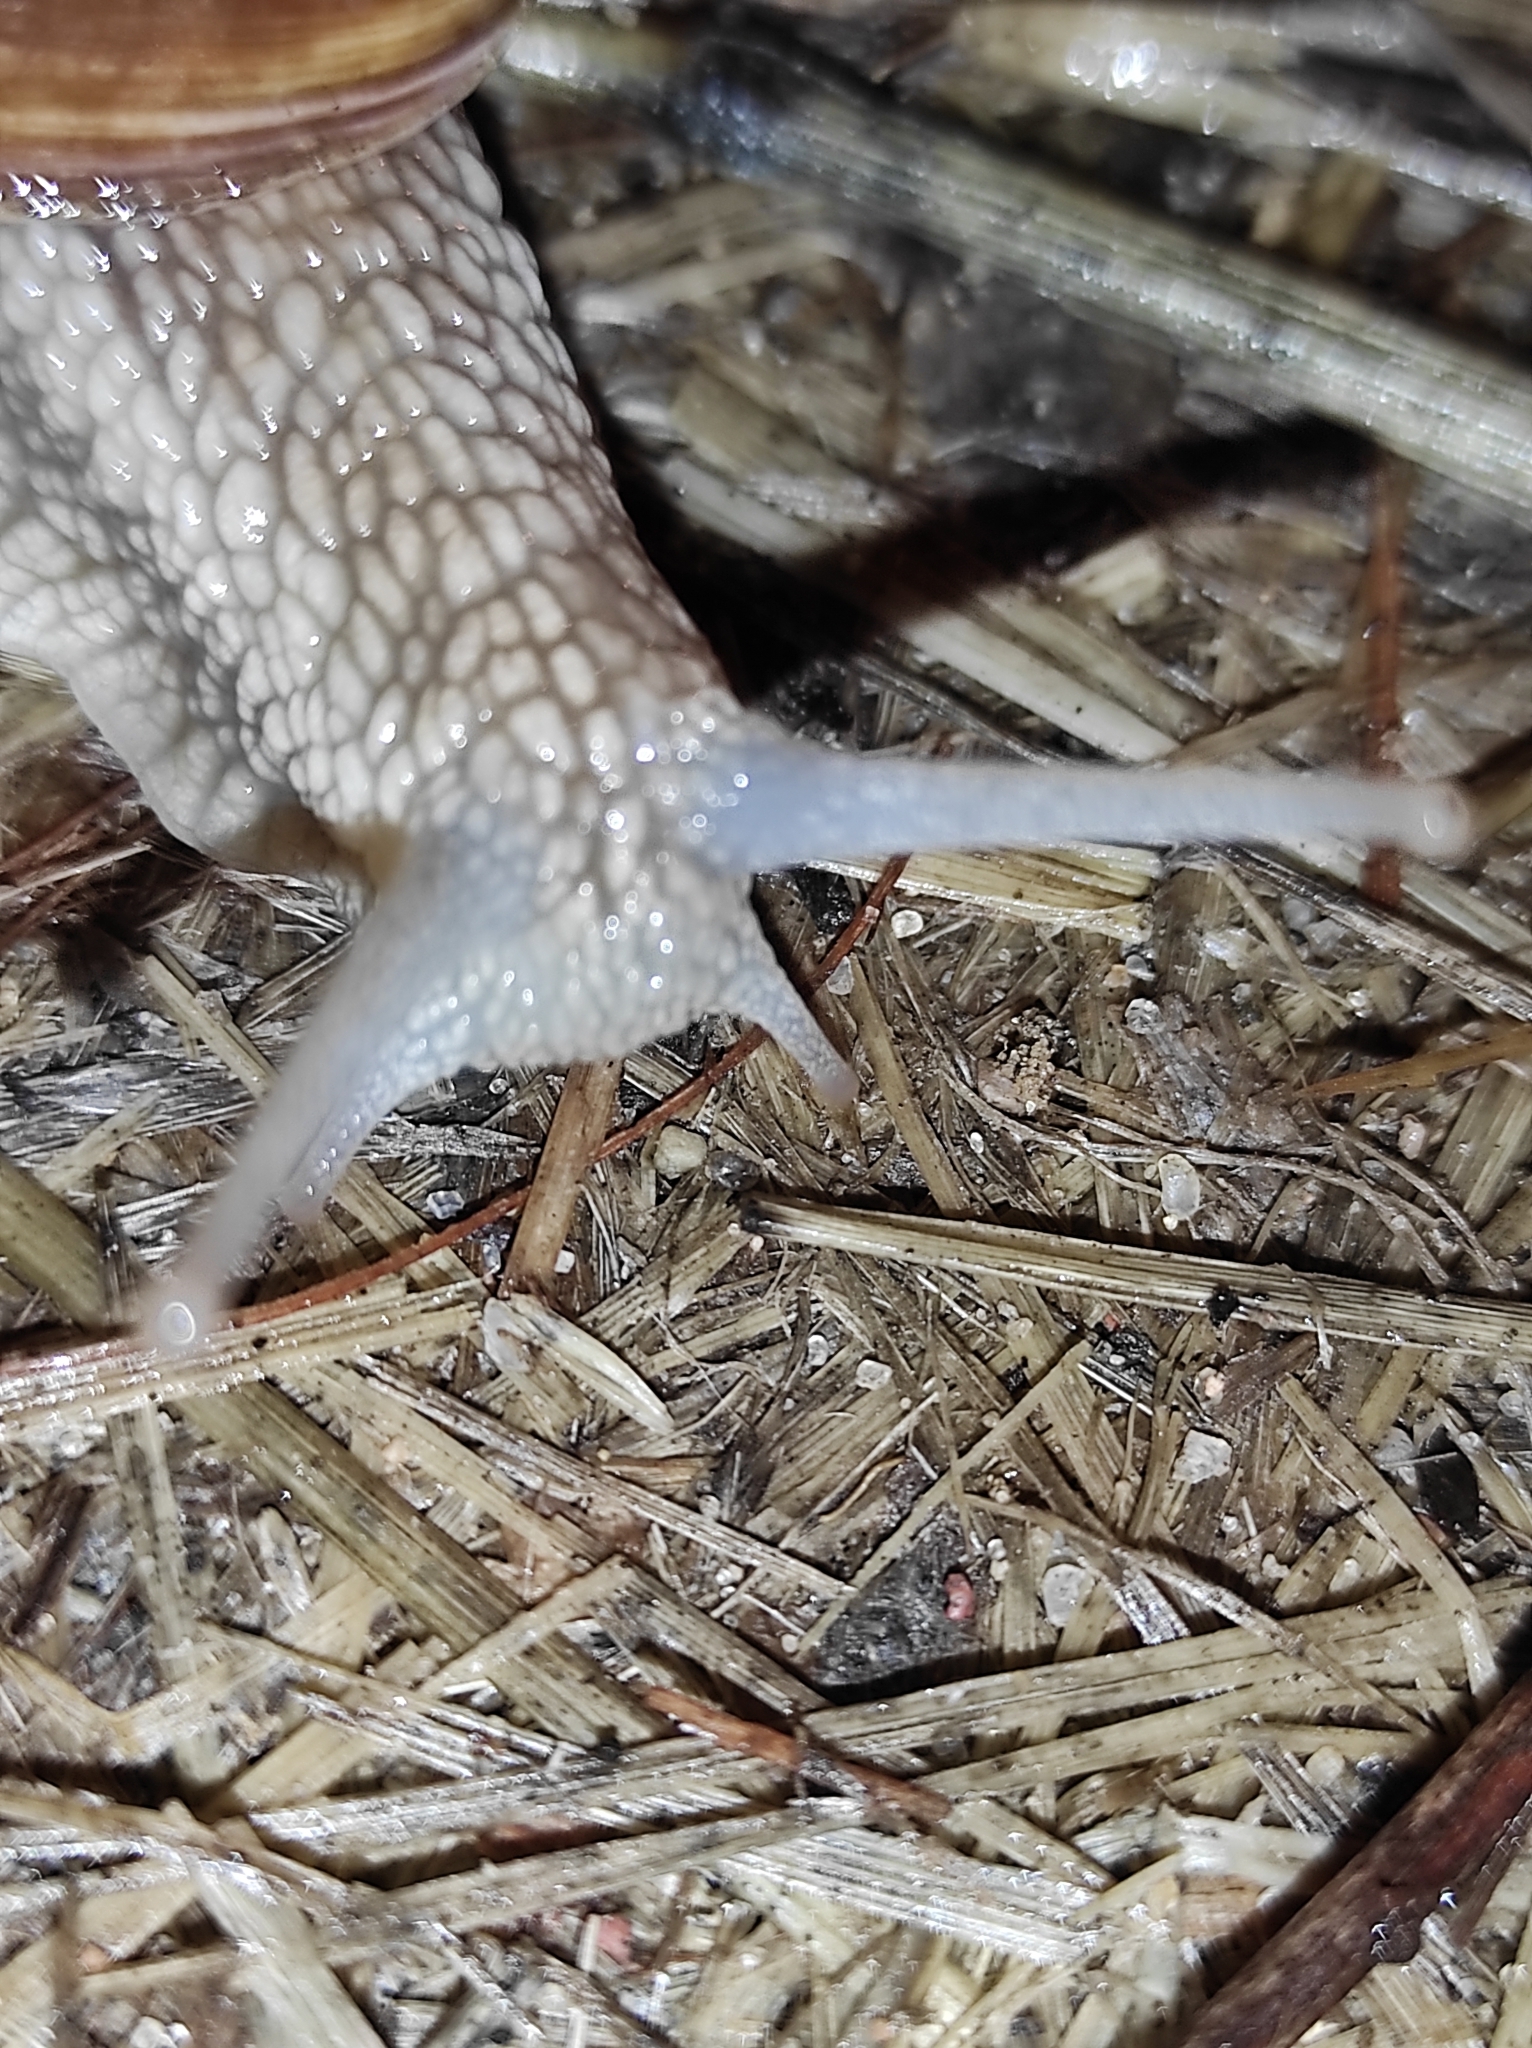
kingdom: Animalia
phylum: Mollusca
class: Gastropoda
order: Stylommatophora
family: Helicidae
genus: Helix
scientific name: Helix pomatia
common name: Roman snail
